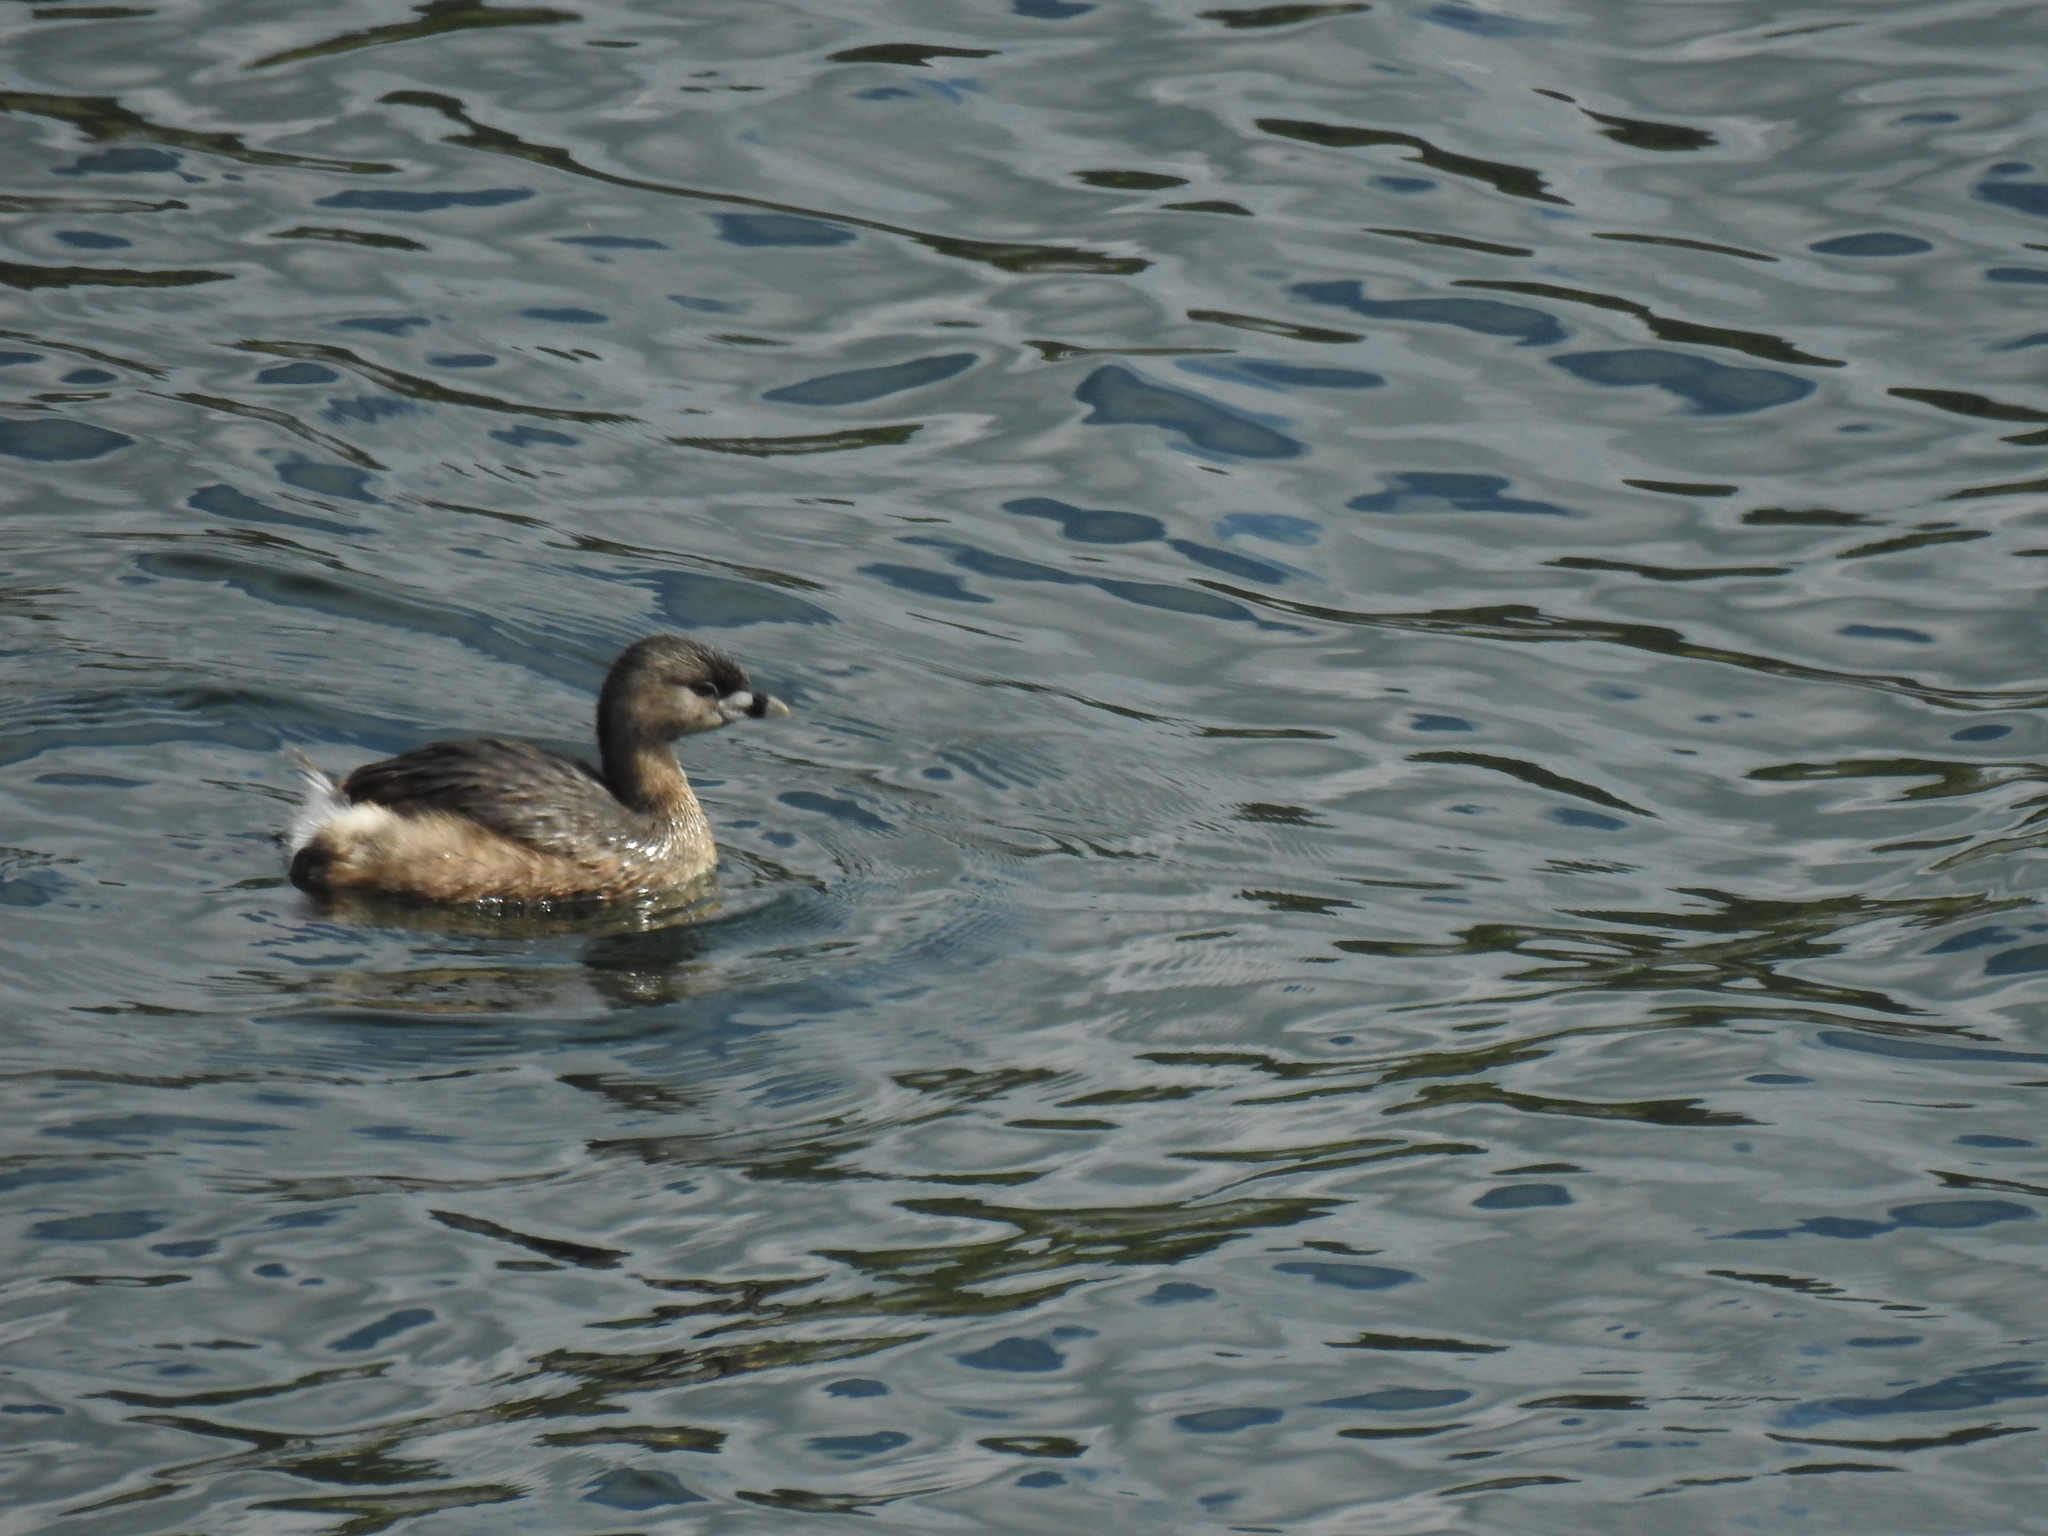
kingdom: Animalia
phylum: Chordata
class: Aves
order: Podicipediformes
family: Podicipedidae
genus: Podilymbus
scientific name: Podilymbus podiceps
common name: Pied-billed grebe
